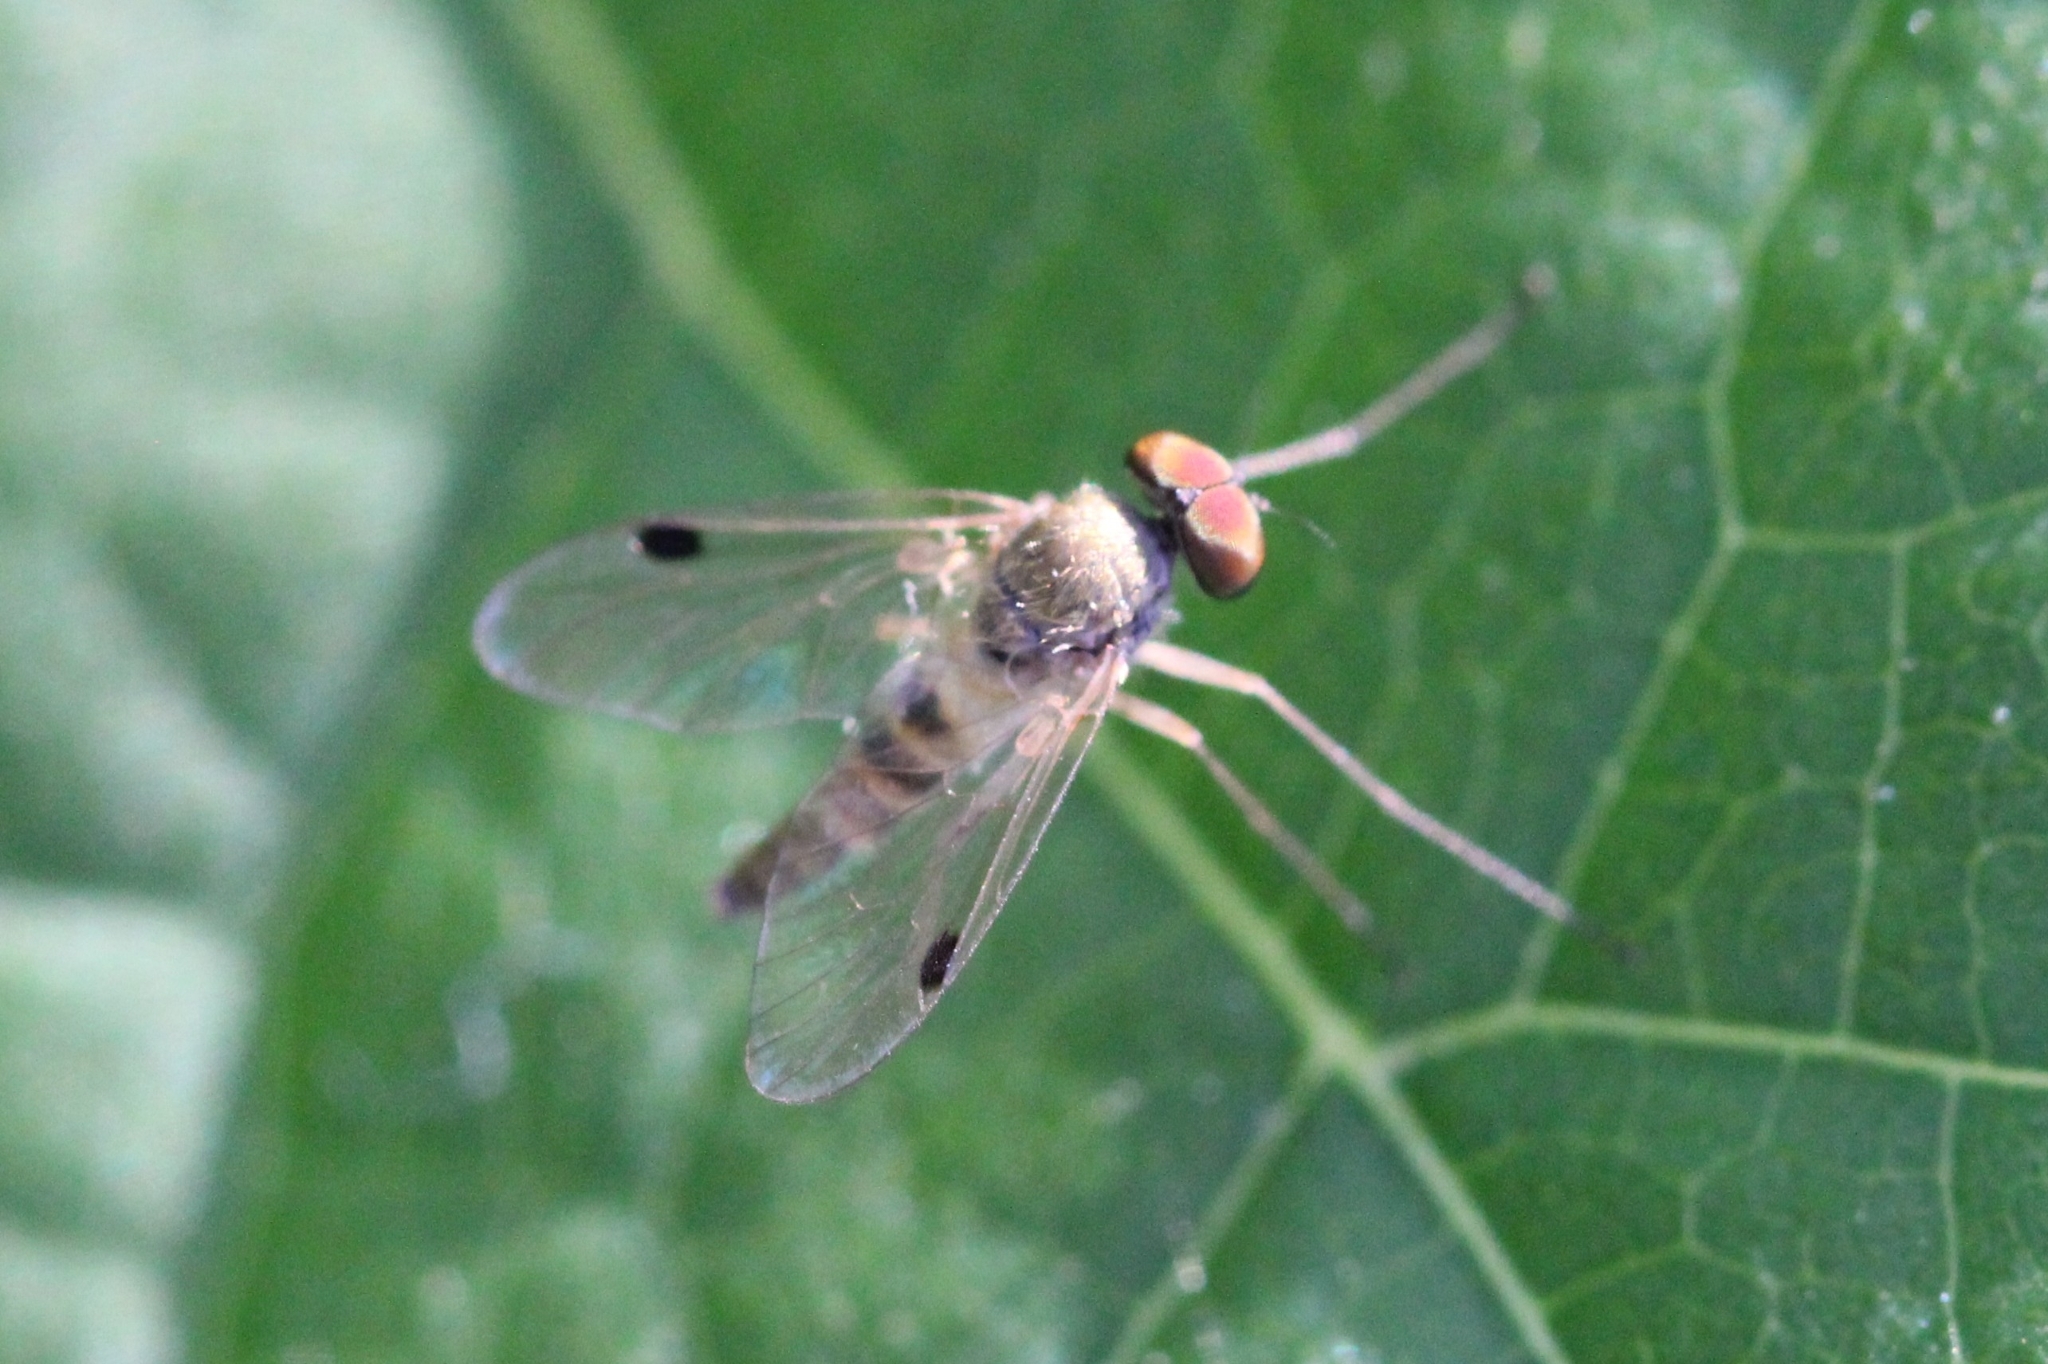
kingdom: Animalia
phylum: Arthropoda
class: Insecta
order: Diptera
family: Rhagionidae
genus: Chrysopilus
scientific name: Chrysopilus modestus
